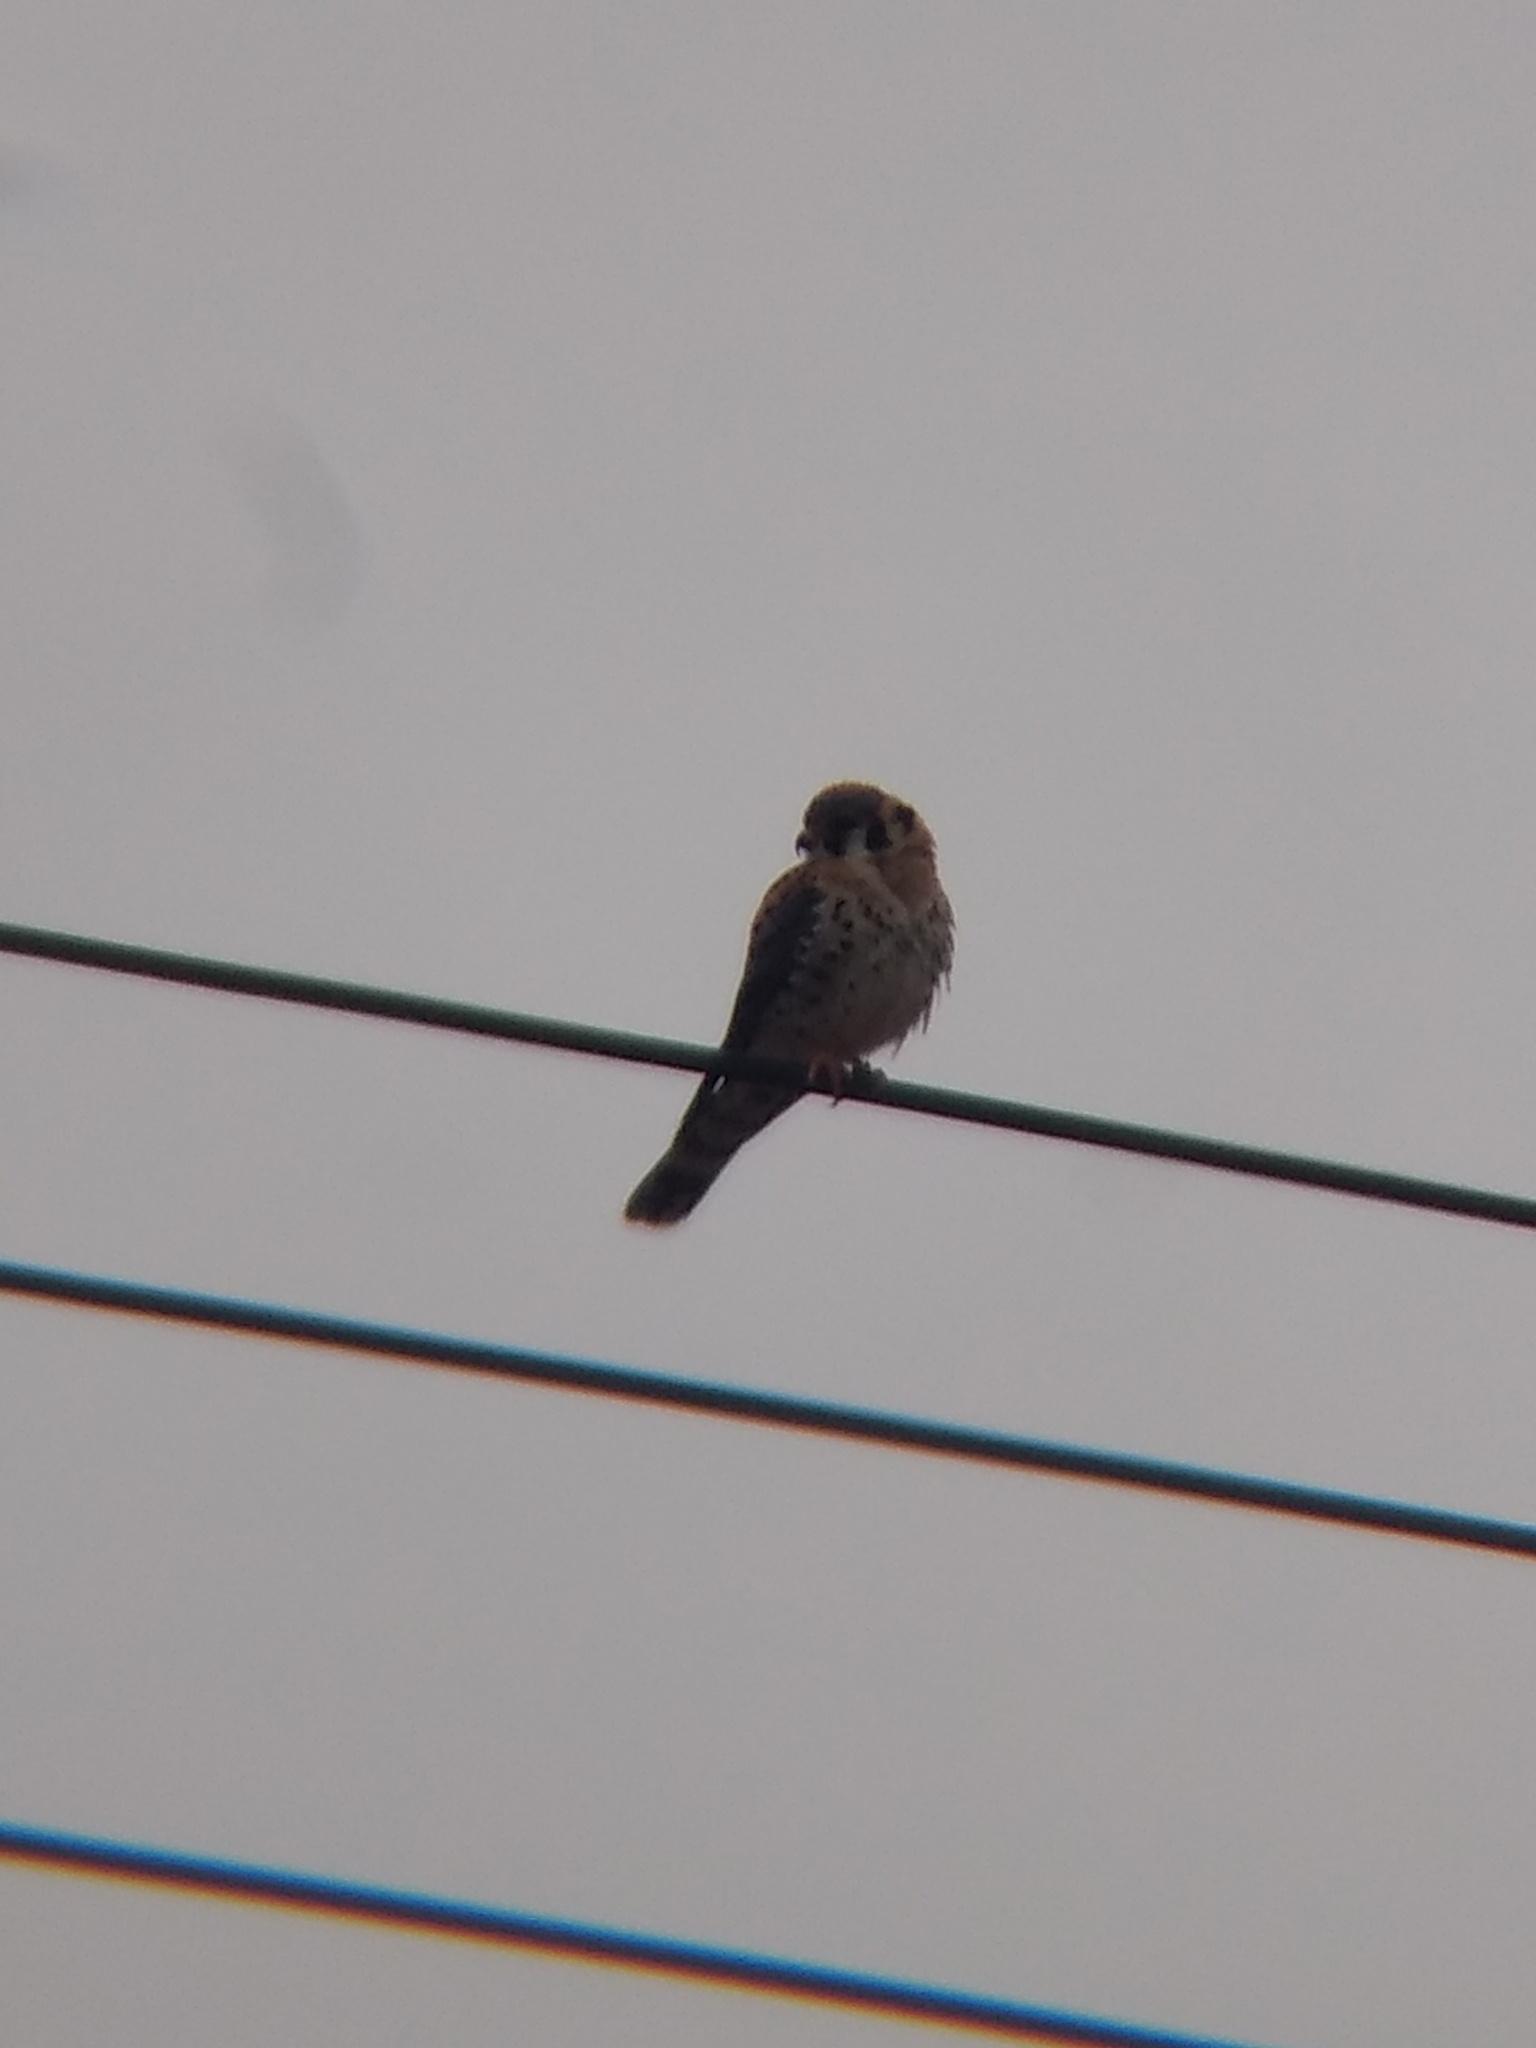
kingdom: Animalia
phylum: Chordata
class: Aves
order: Falconiformes
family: Falconidae
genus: Falco
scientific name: Falco sparverius
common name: American kestrel
